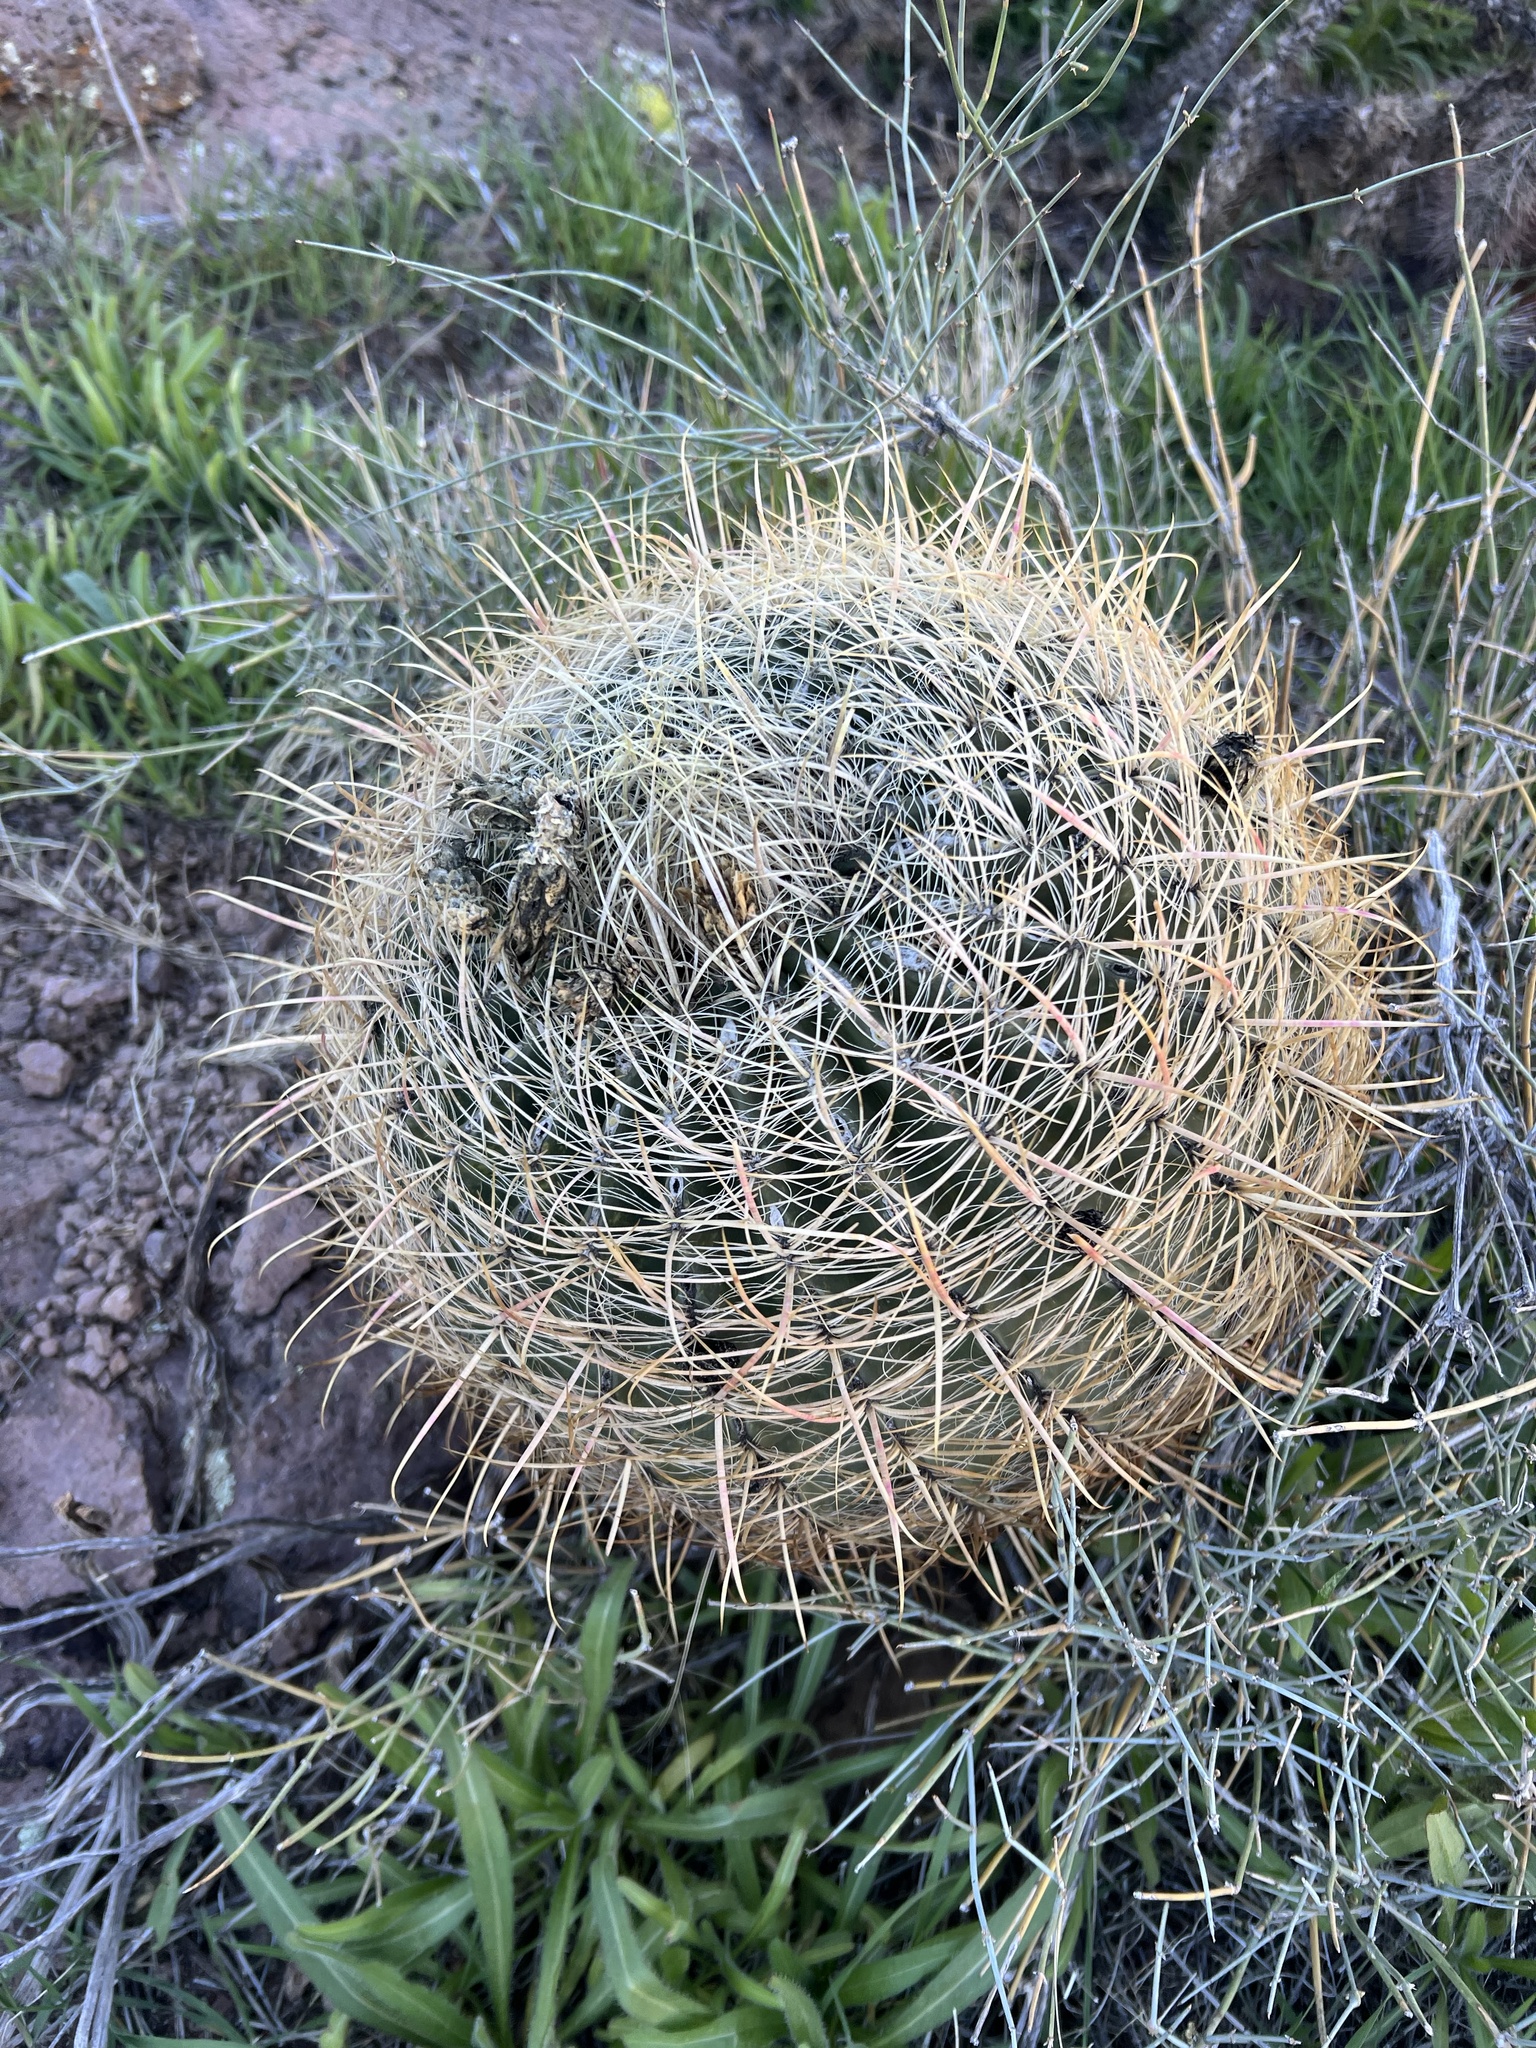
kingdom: Plantae
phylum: Tracheophyta
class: Magnoliopsida
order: Caryophyllales
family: Cactaceae
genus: Ferocactus
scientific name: Ferocactus cylindraceus
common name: California barrel cactus
